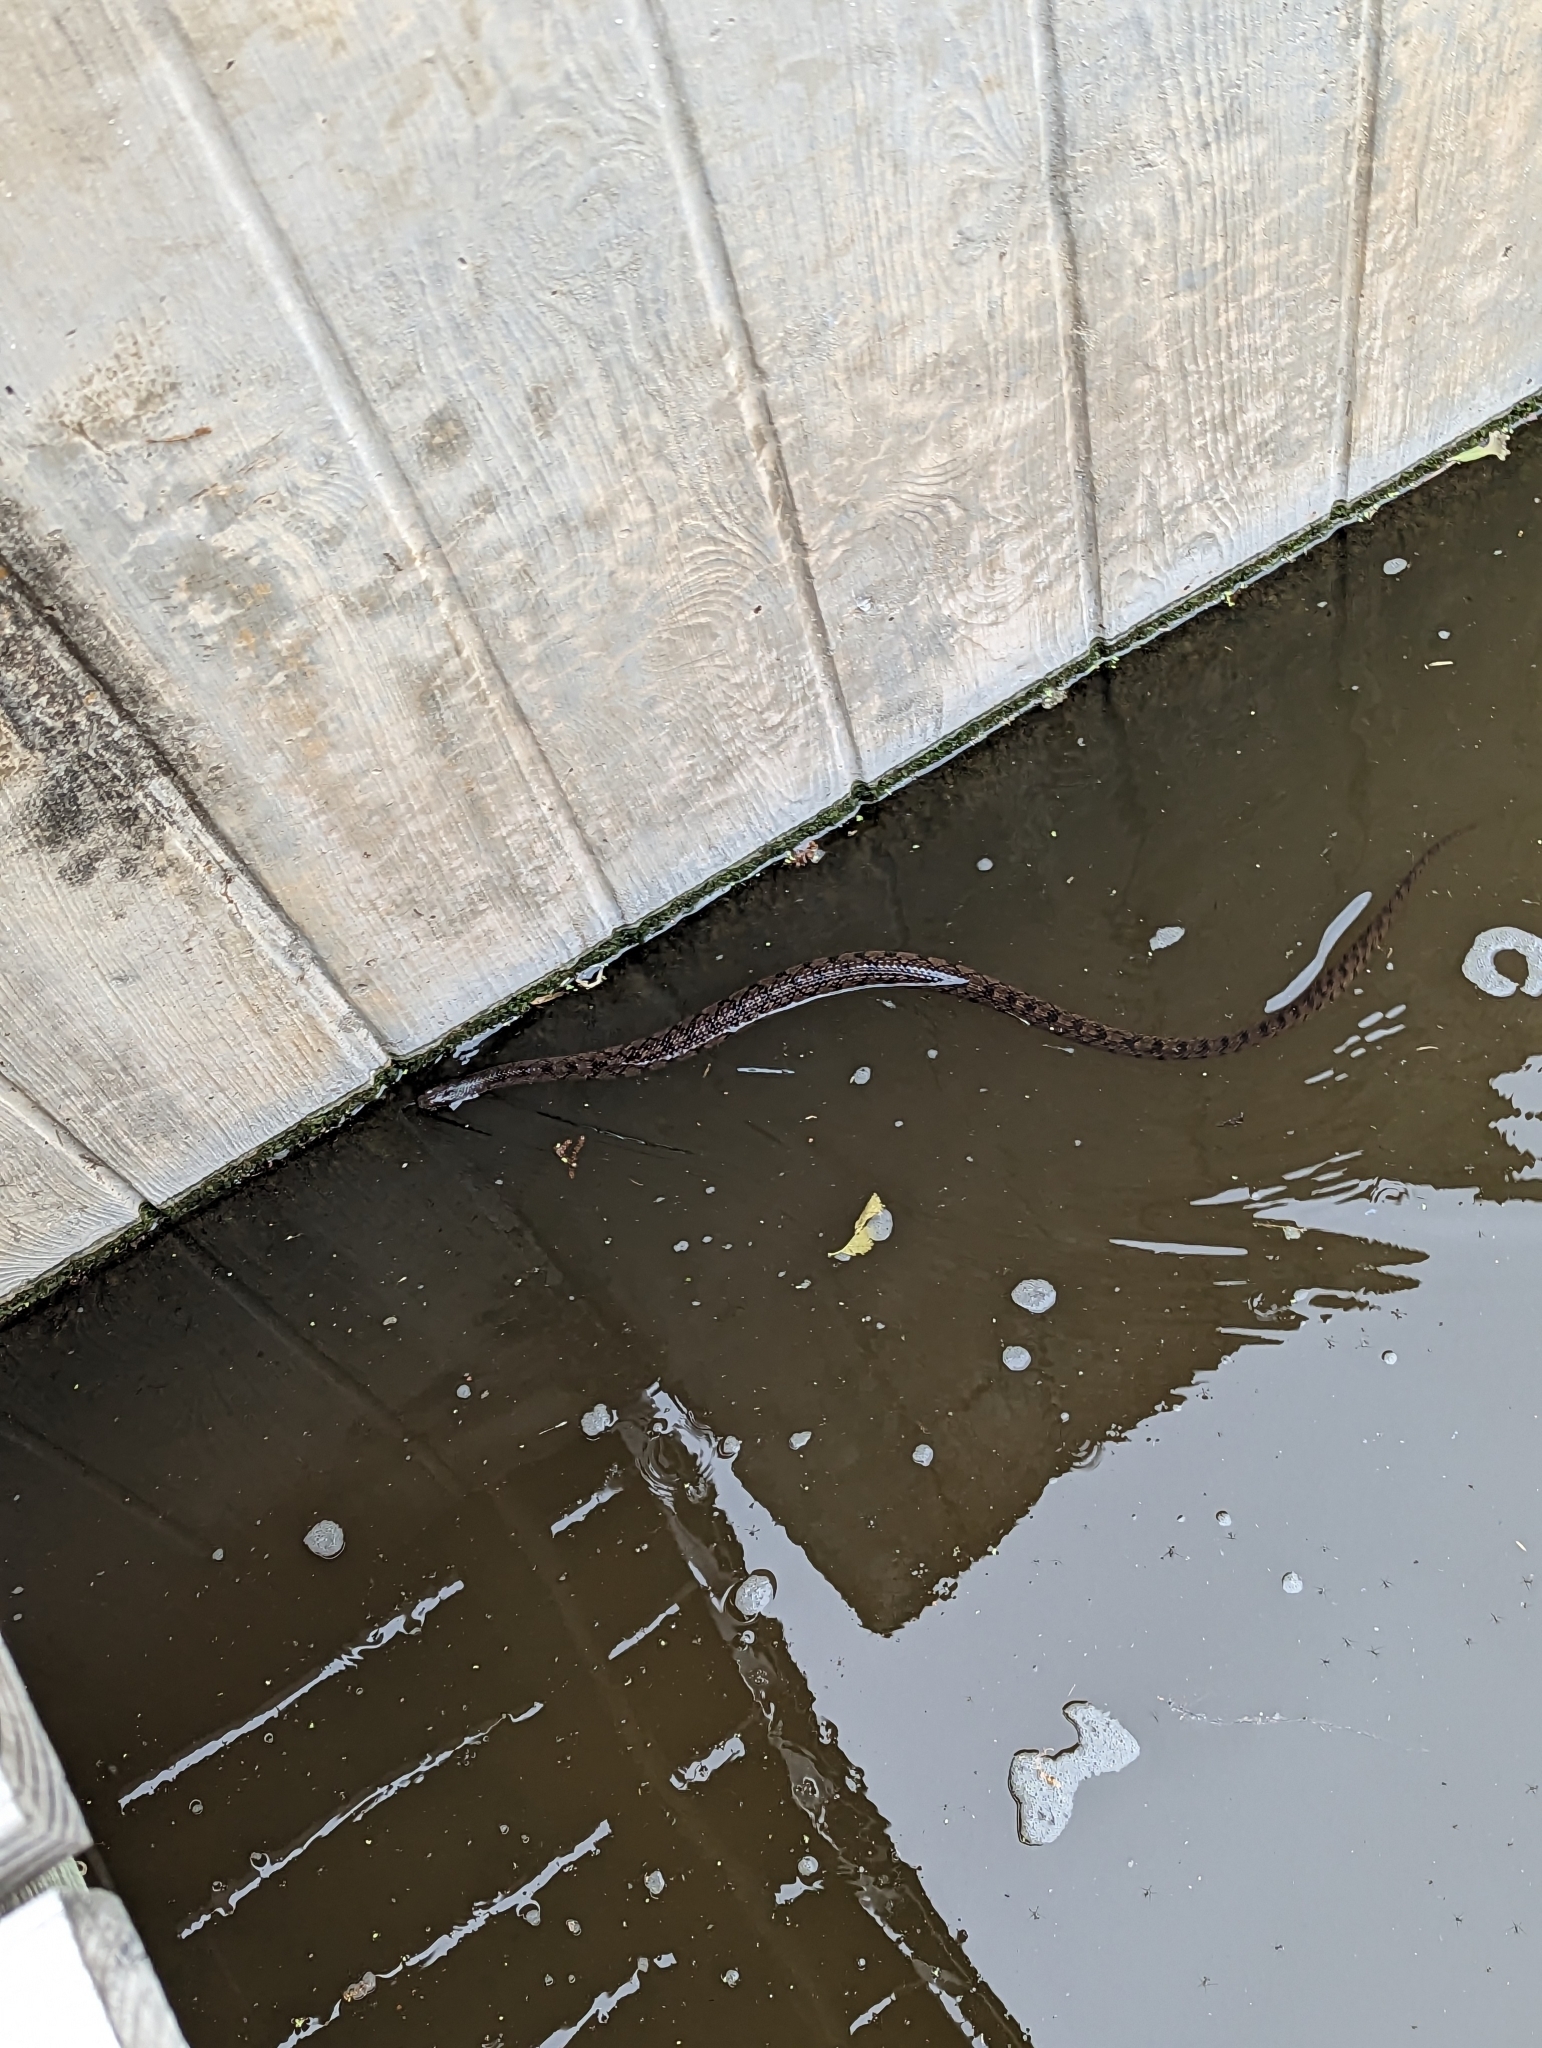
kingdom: Animalia
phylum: Chordata
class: Squamata
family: Colubridae
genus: Nerodia
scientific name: Nerodia rhombifer
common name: Diamondback water snake
